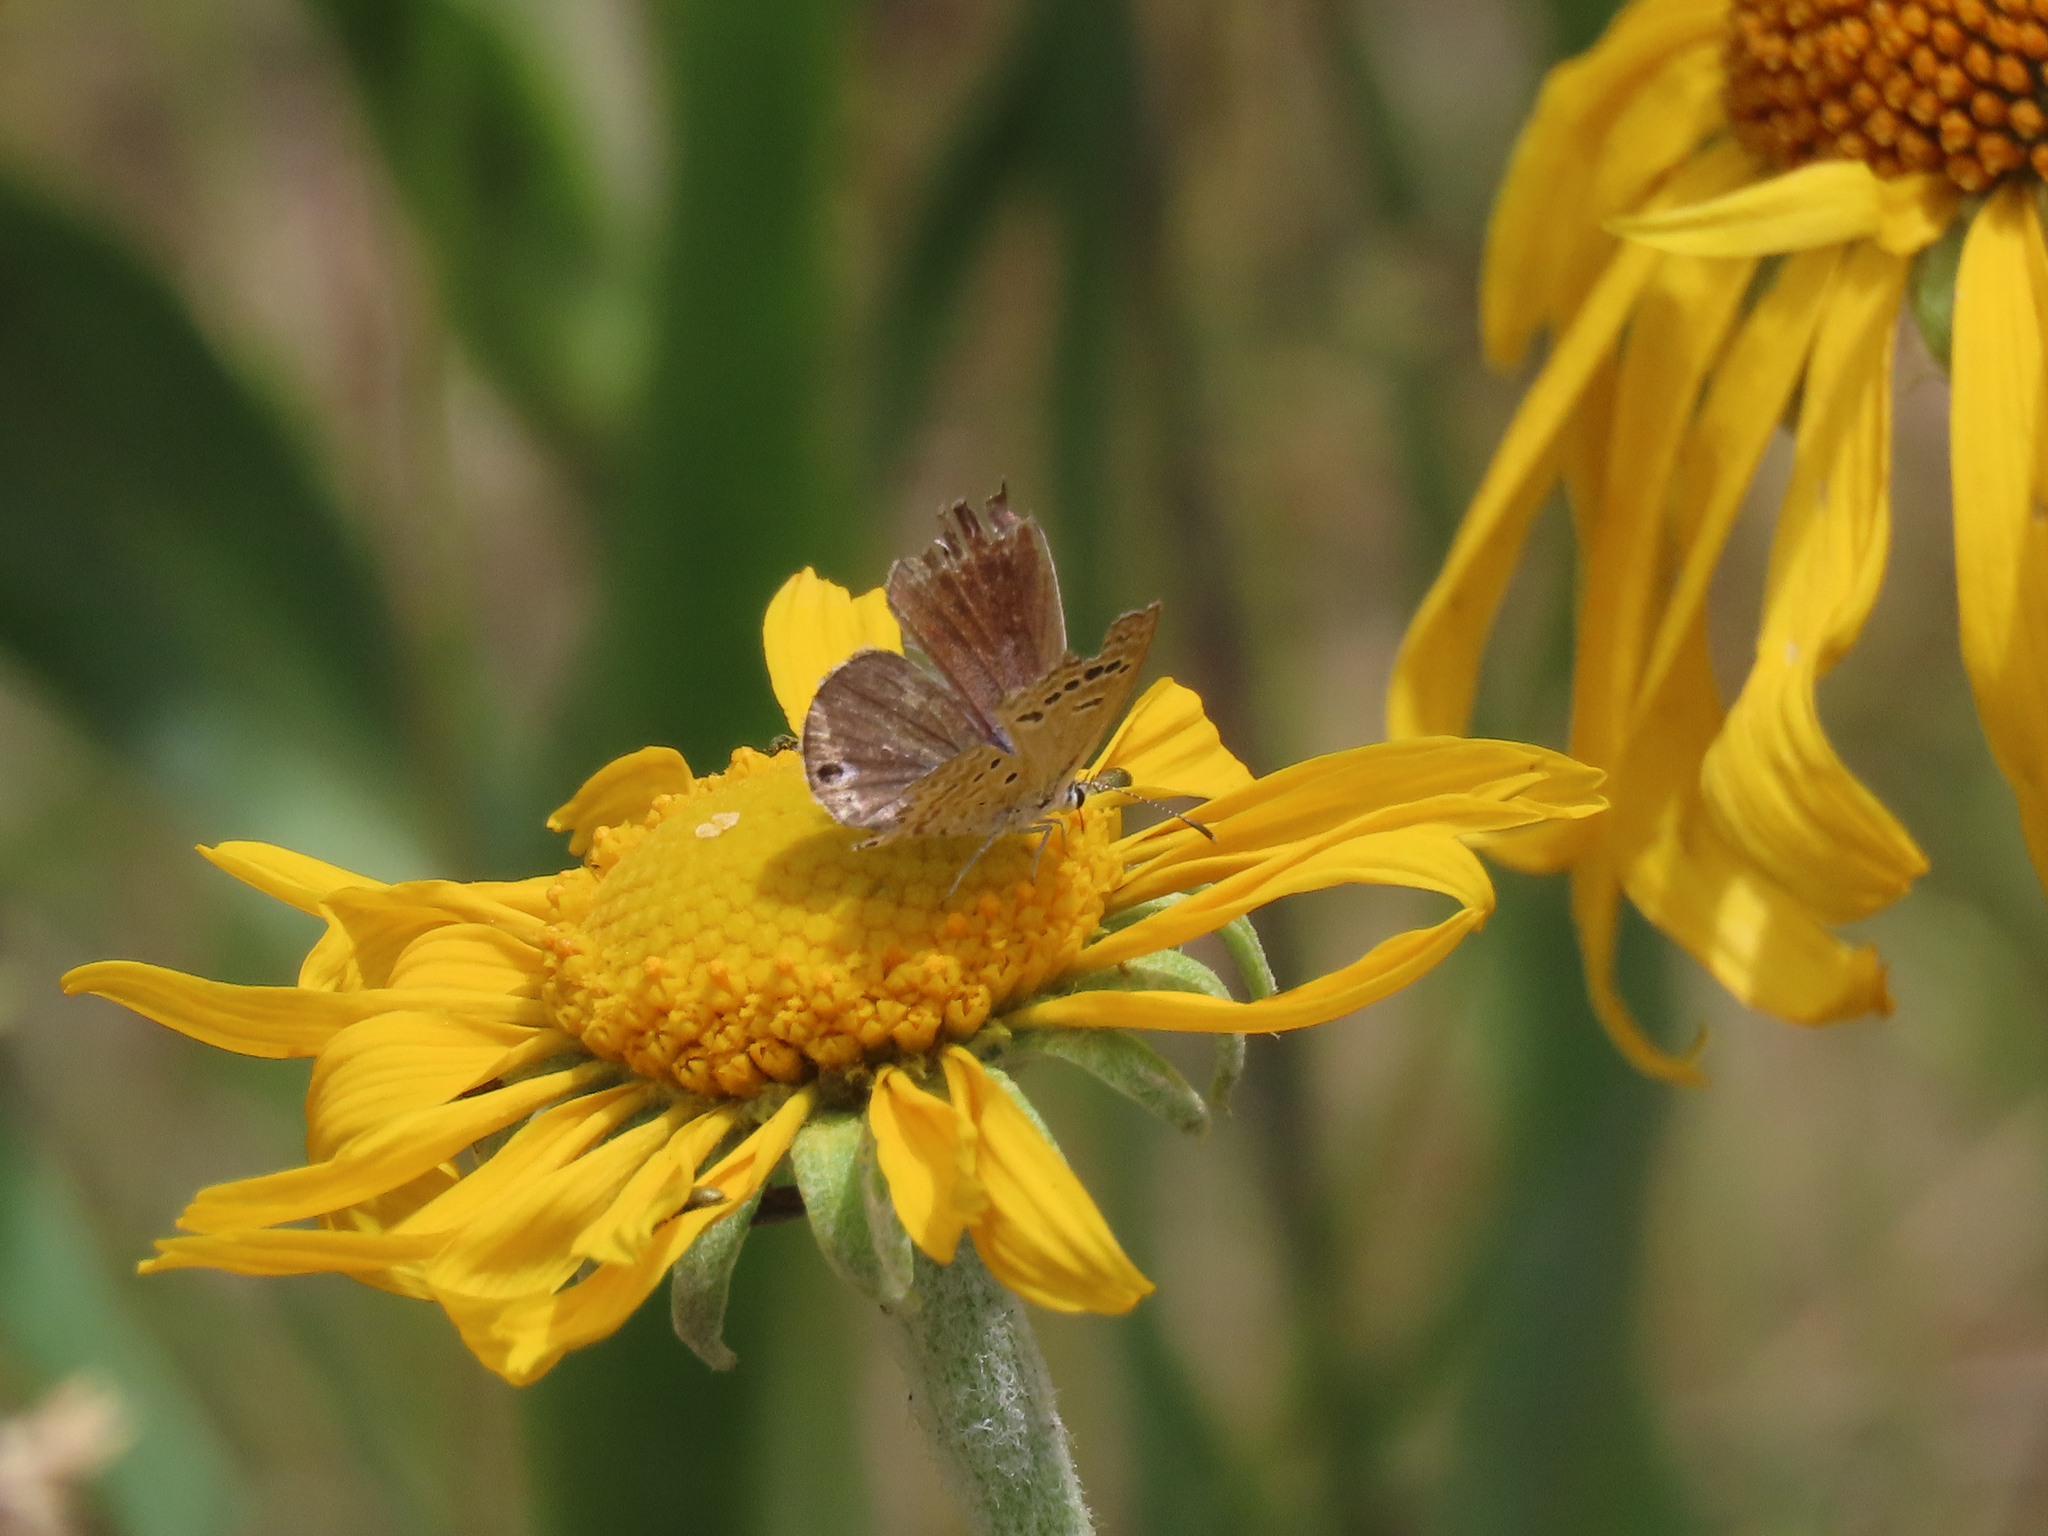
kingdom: Animalia
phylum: Arthropoda
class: Insecta
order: Lepidoptera
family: Lycaenidae
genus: Echinargus
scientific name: Echinargus isola
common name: Reakirt's blue
